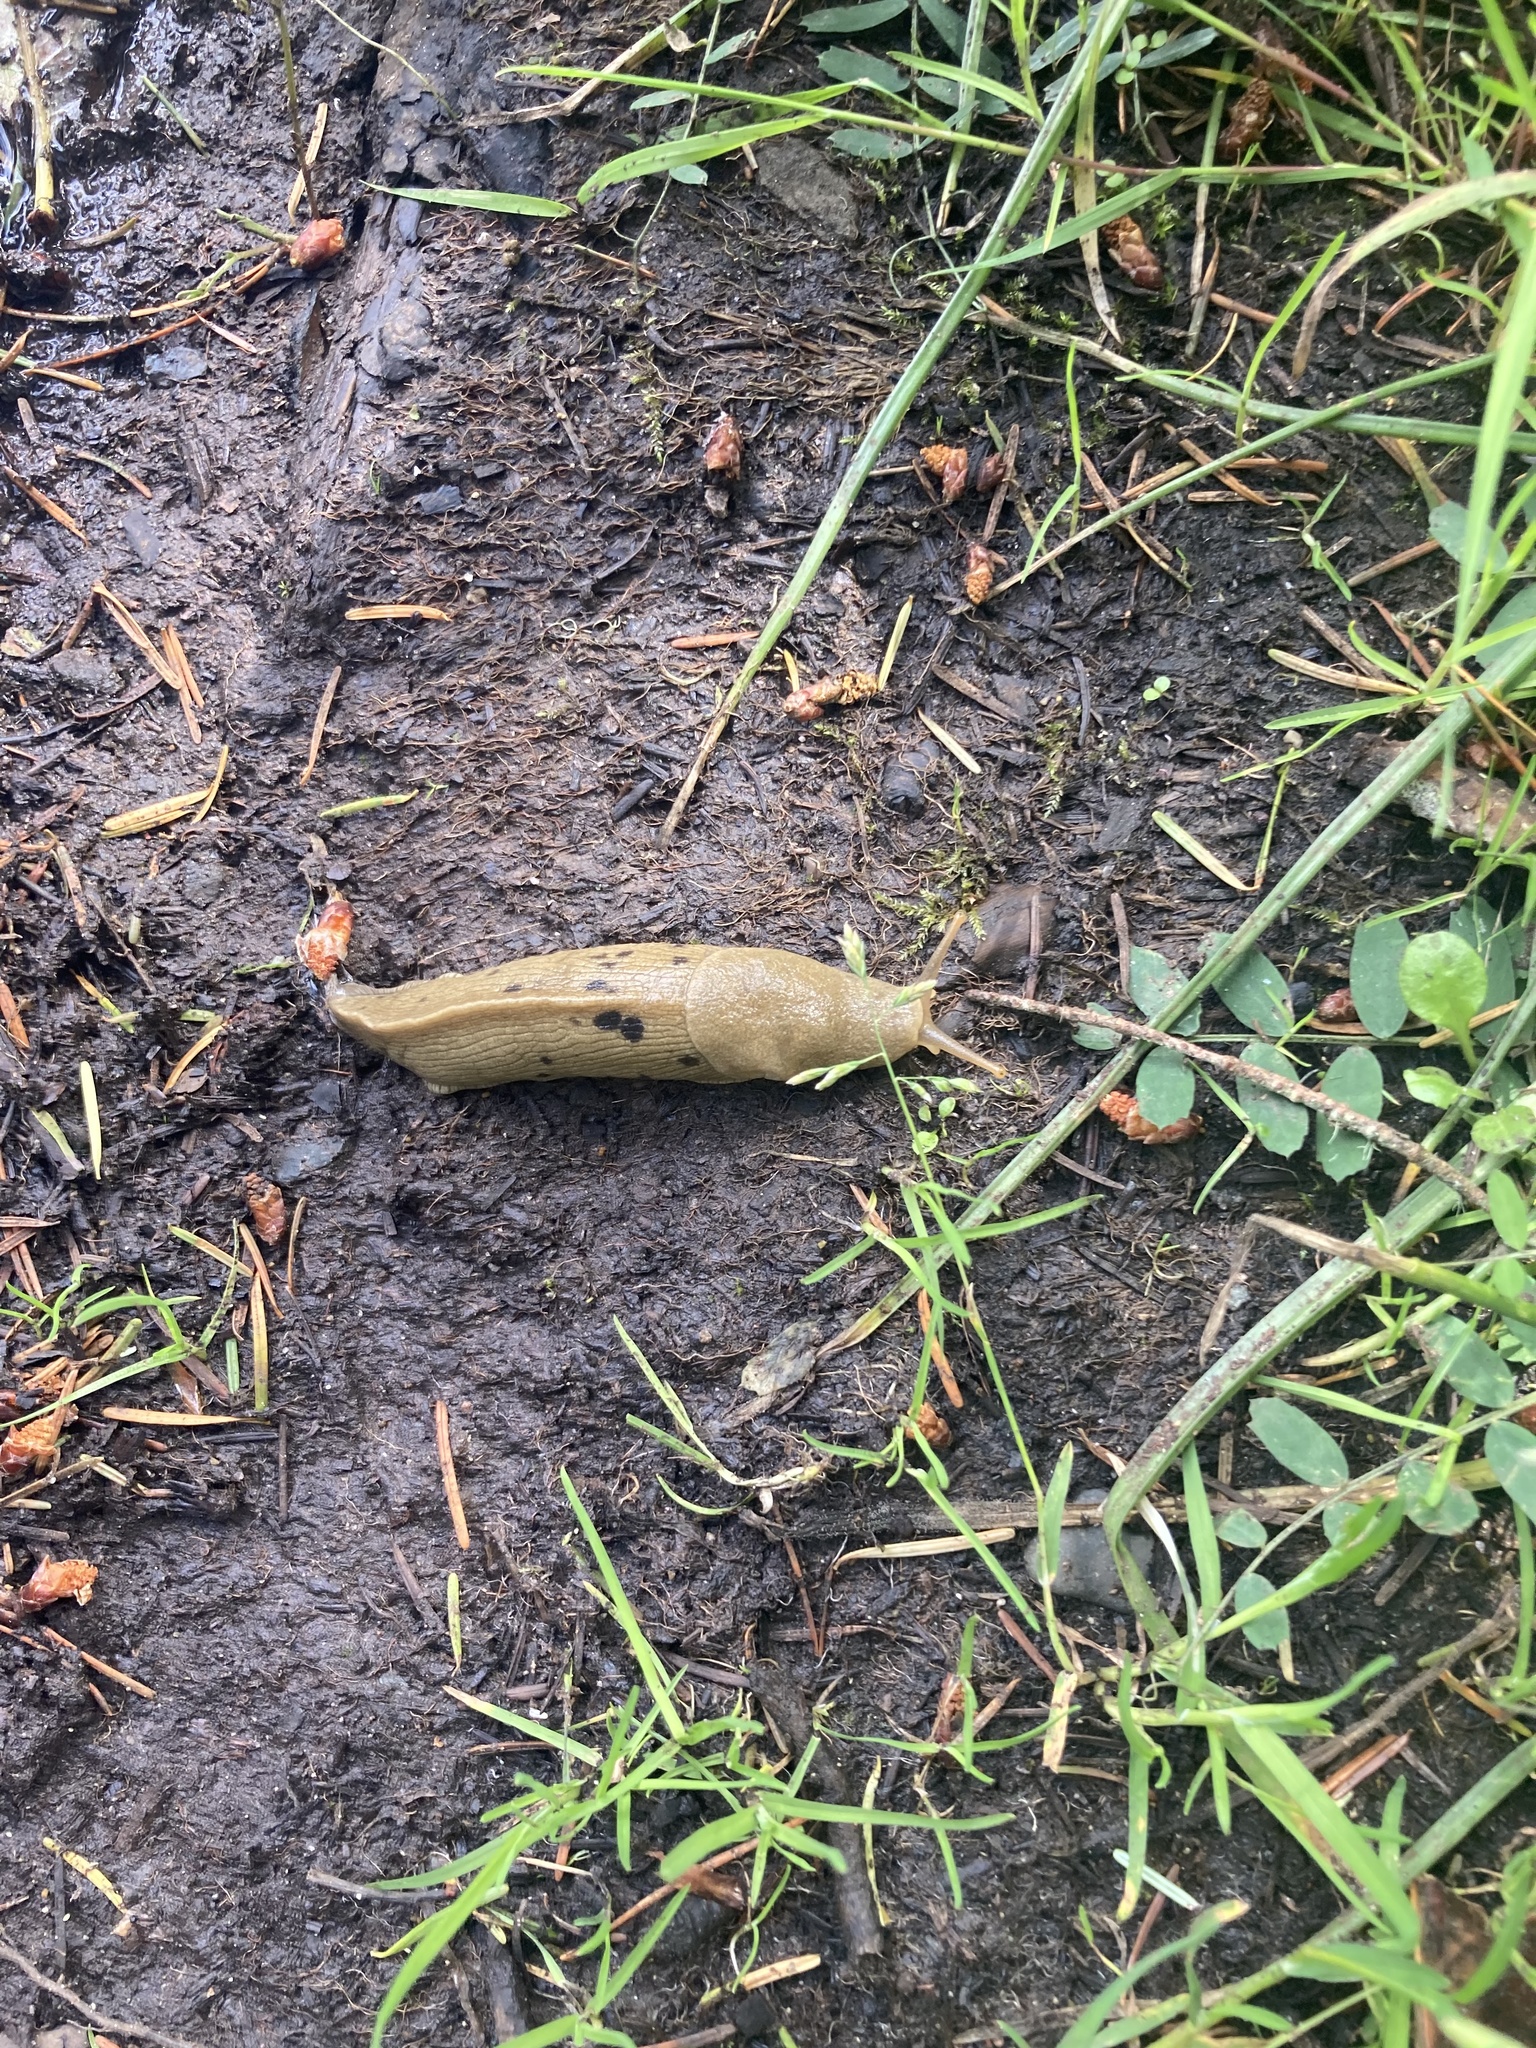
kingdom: Animalia
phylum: Mollusca
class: Gastropoda
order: Stylommatophora
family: Ariolimacidae
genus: Ariolimax
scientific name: Ariolimax columbianus
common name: Pacific banana slug
